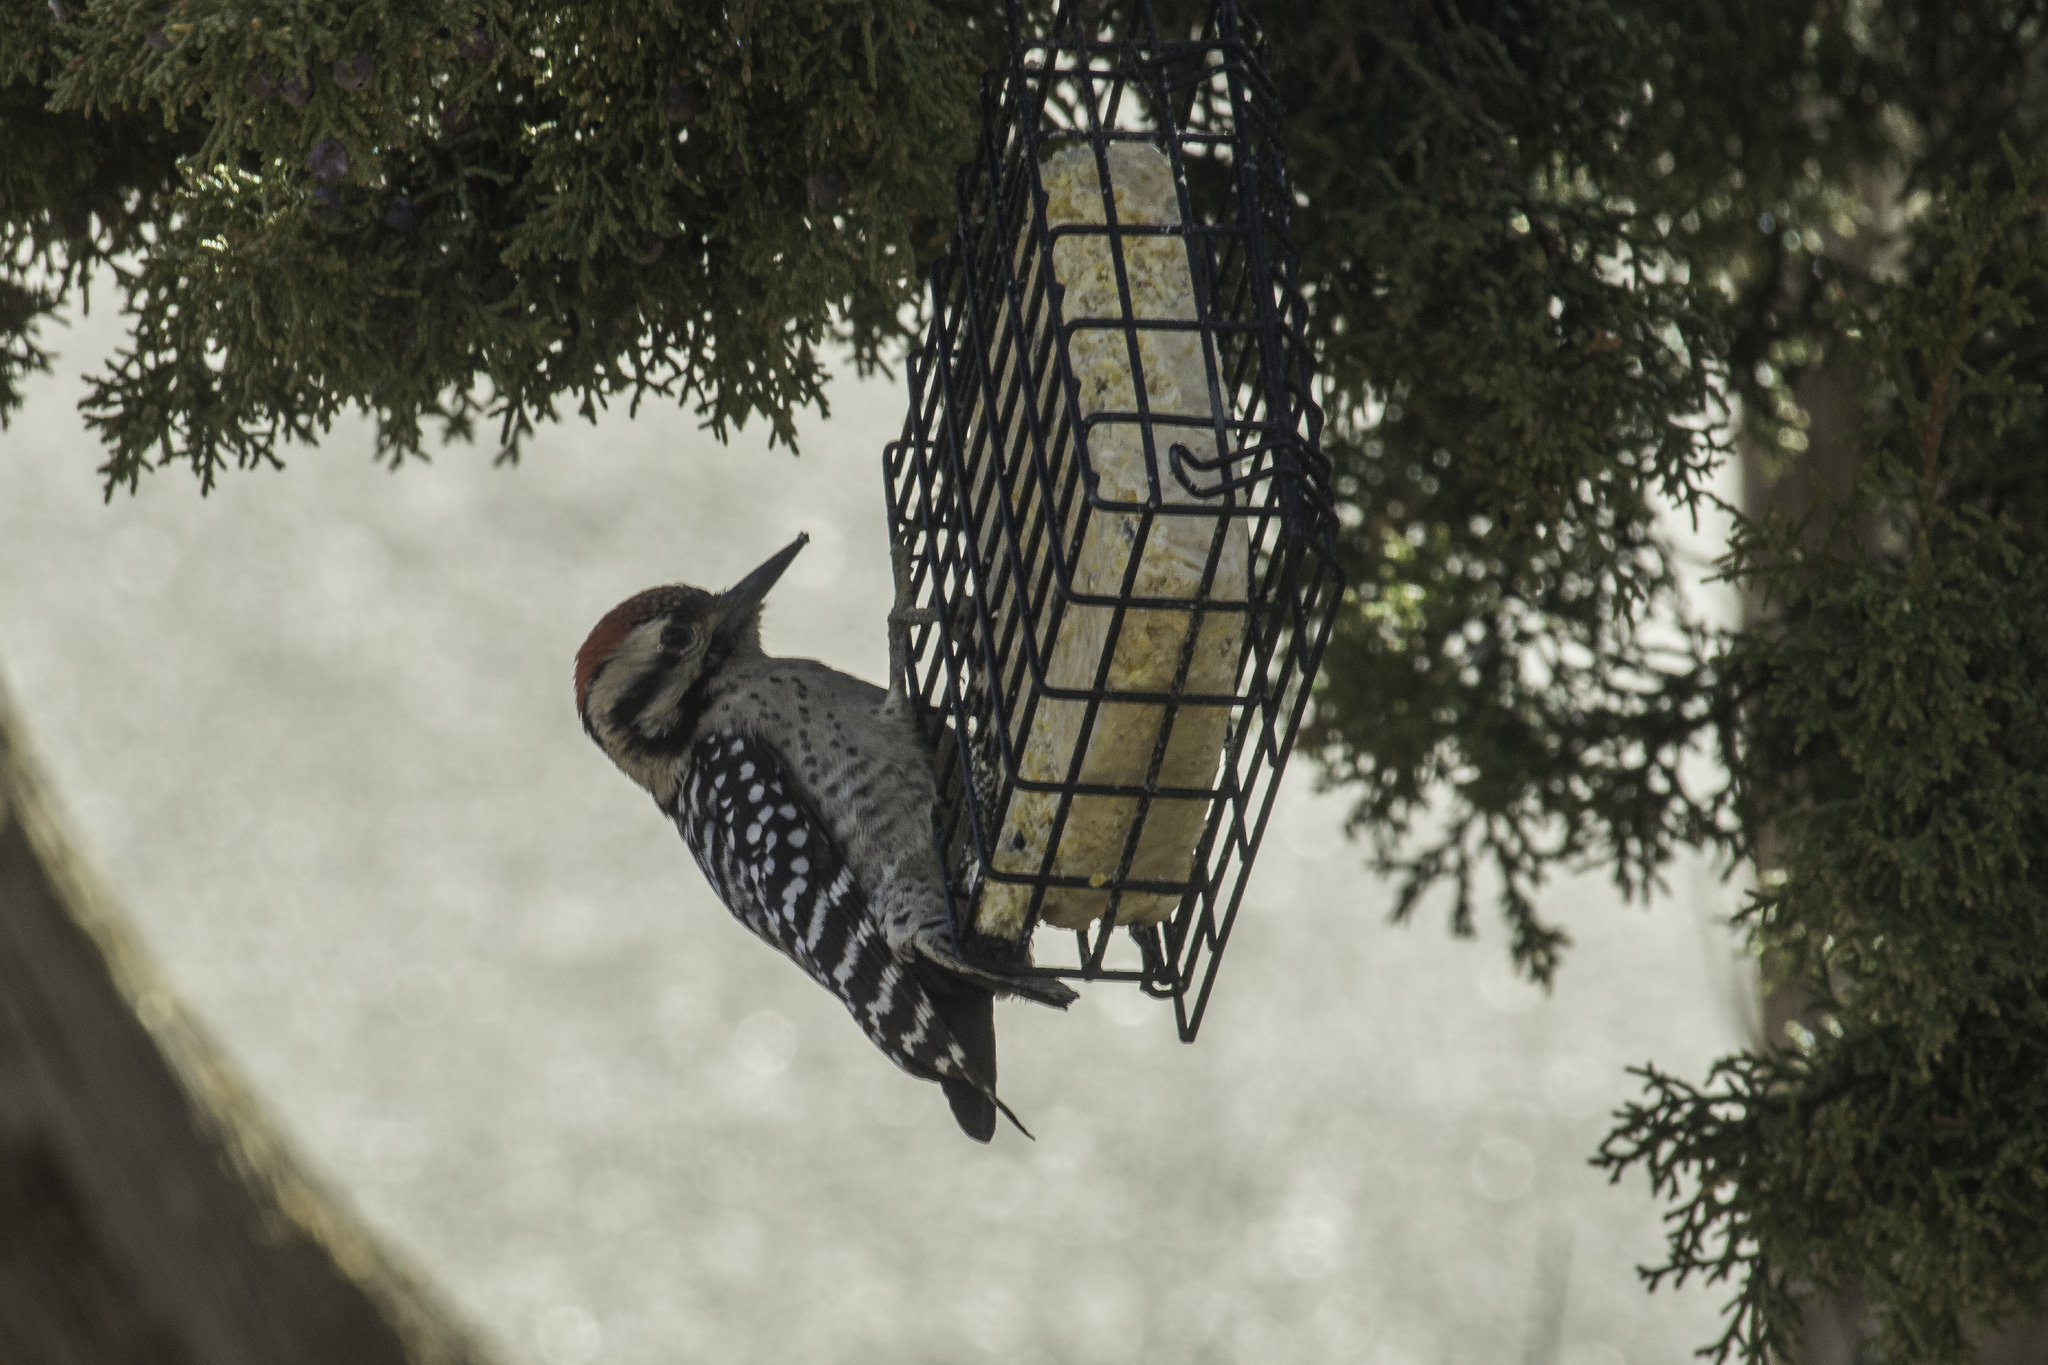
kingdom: Animalia
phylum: Chordata
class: Aves
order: Piciformes
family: Picidae
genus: Dryobates
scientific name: Dryobates scalaris
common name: Ladder-backed woodpecker
